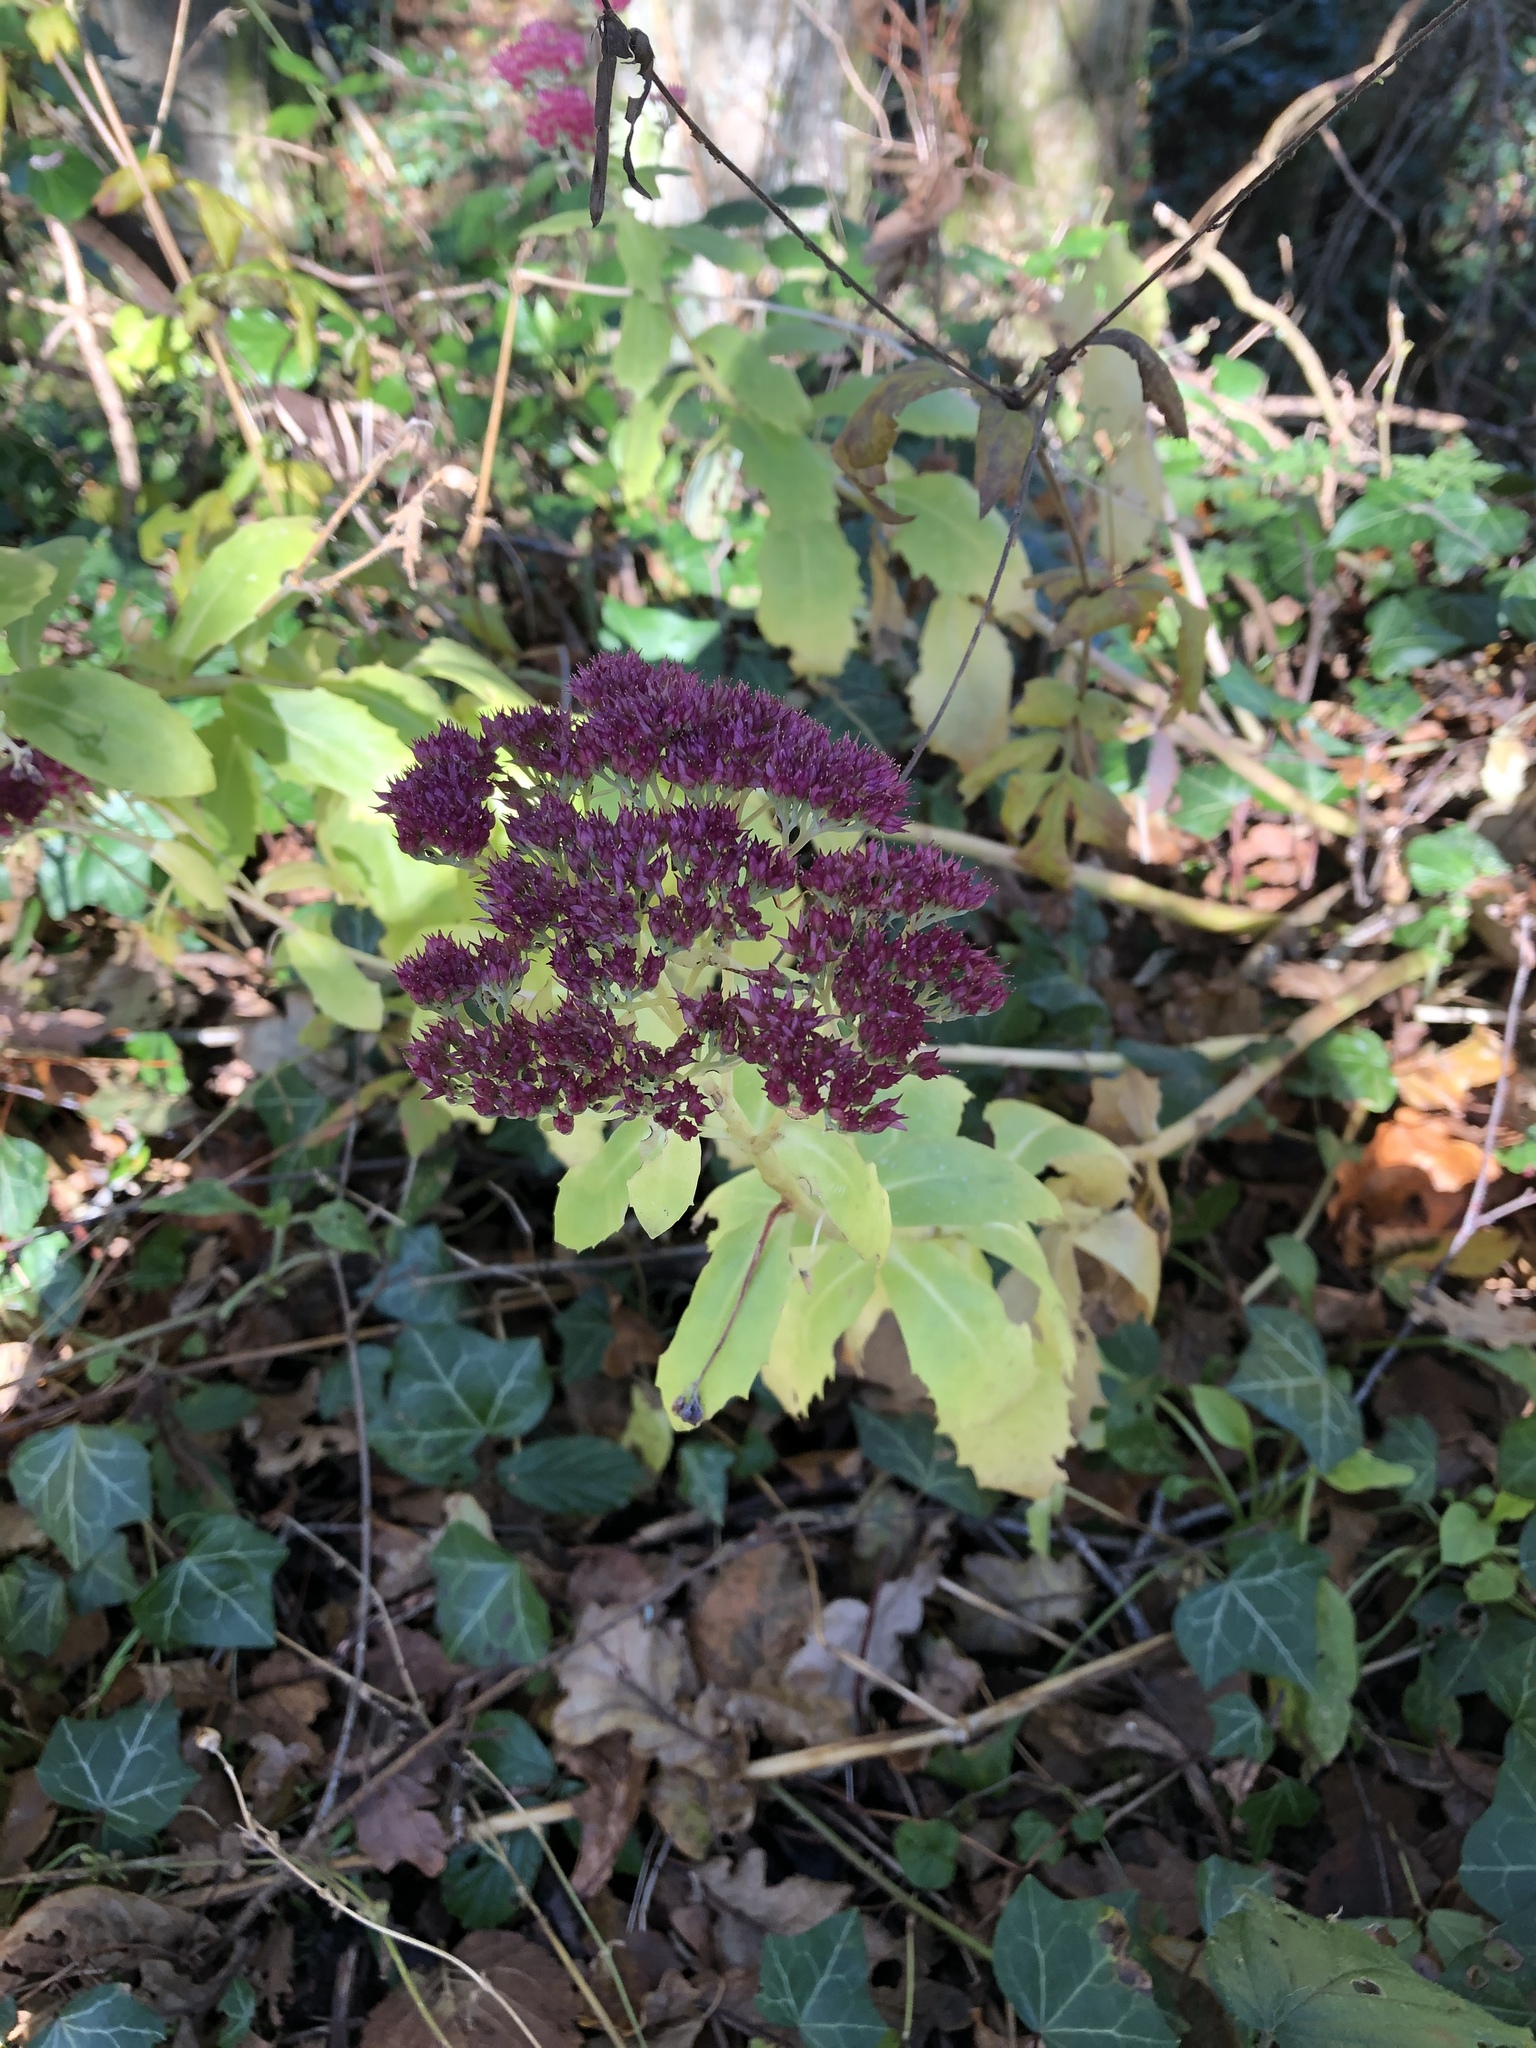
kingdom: Plantae
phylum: Tracheophyta
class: Magnoliopsida
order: Saxifragales
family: Crassulaceae
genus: Hylotelephium
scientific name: Hylotelephium telephium
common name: Live-forever
